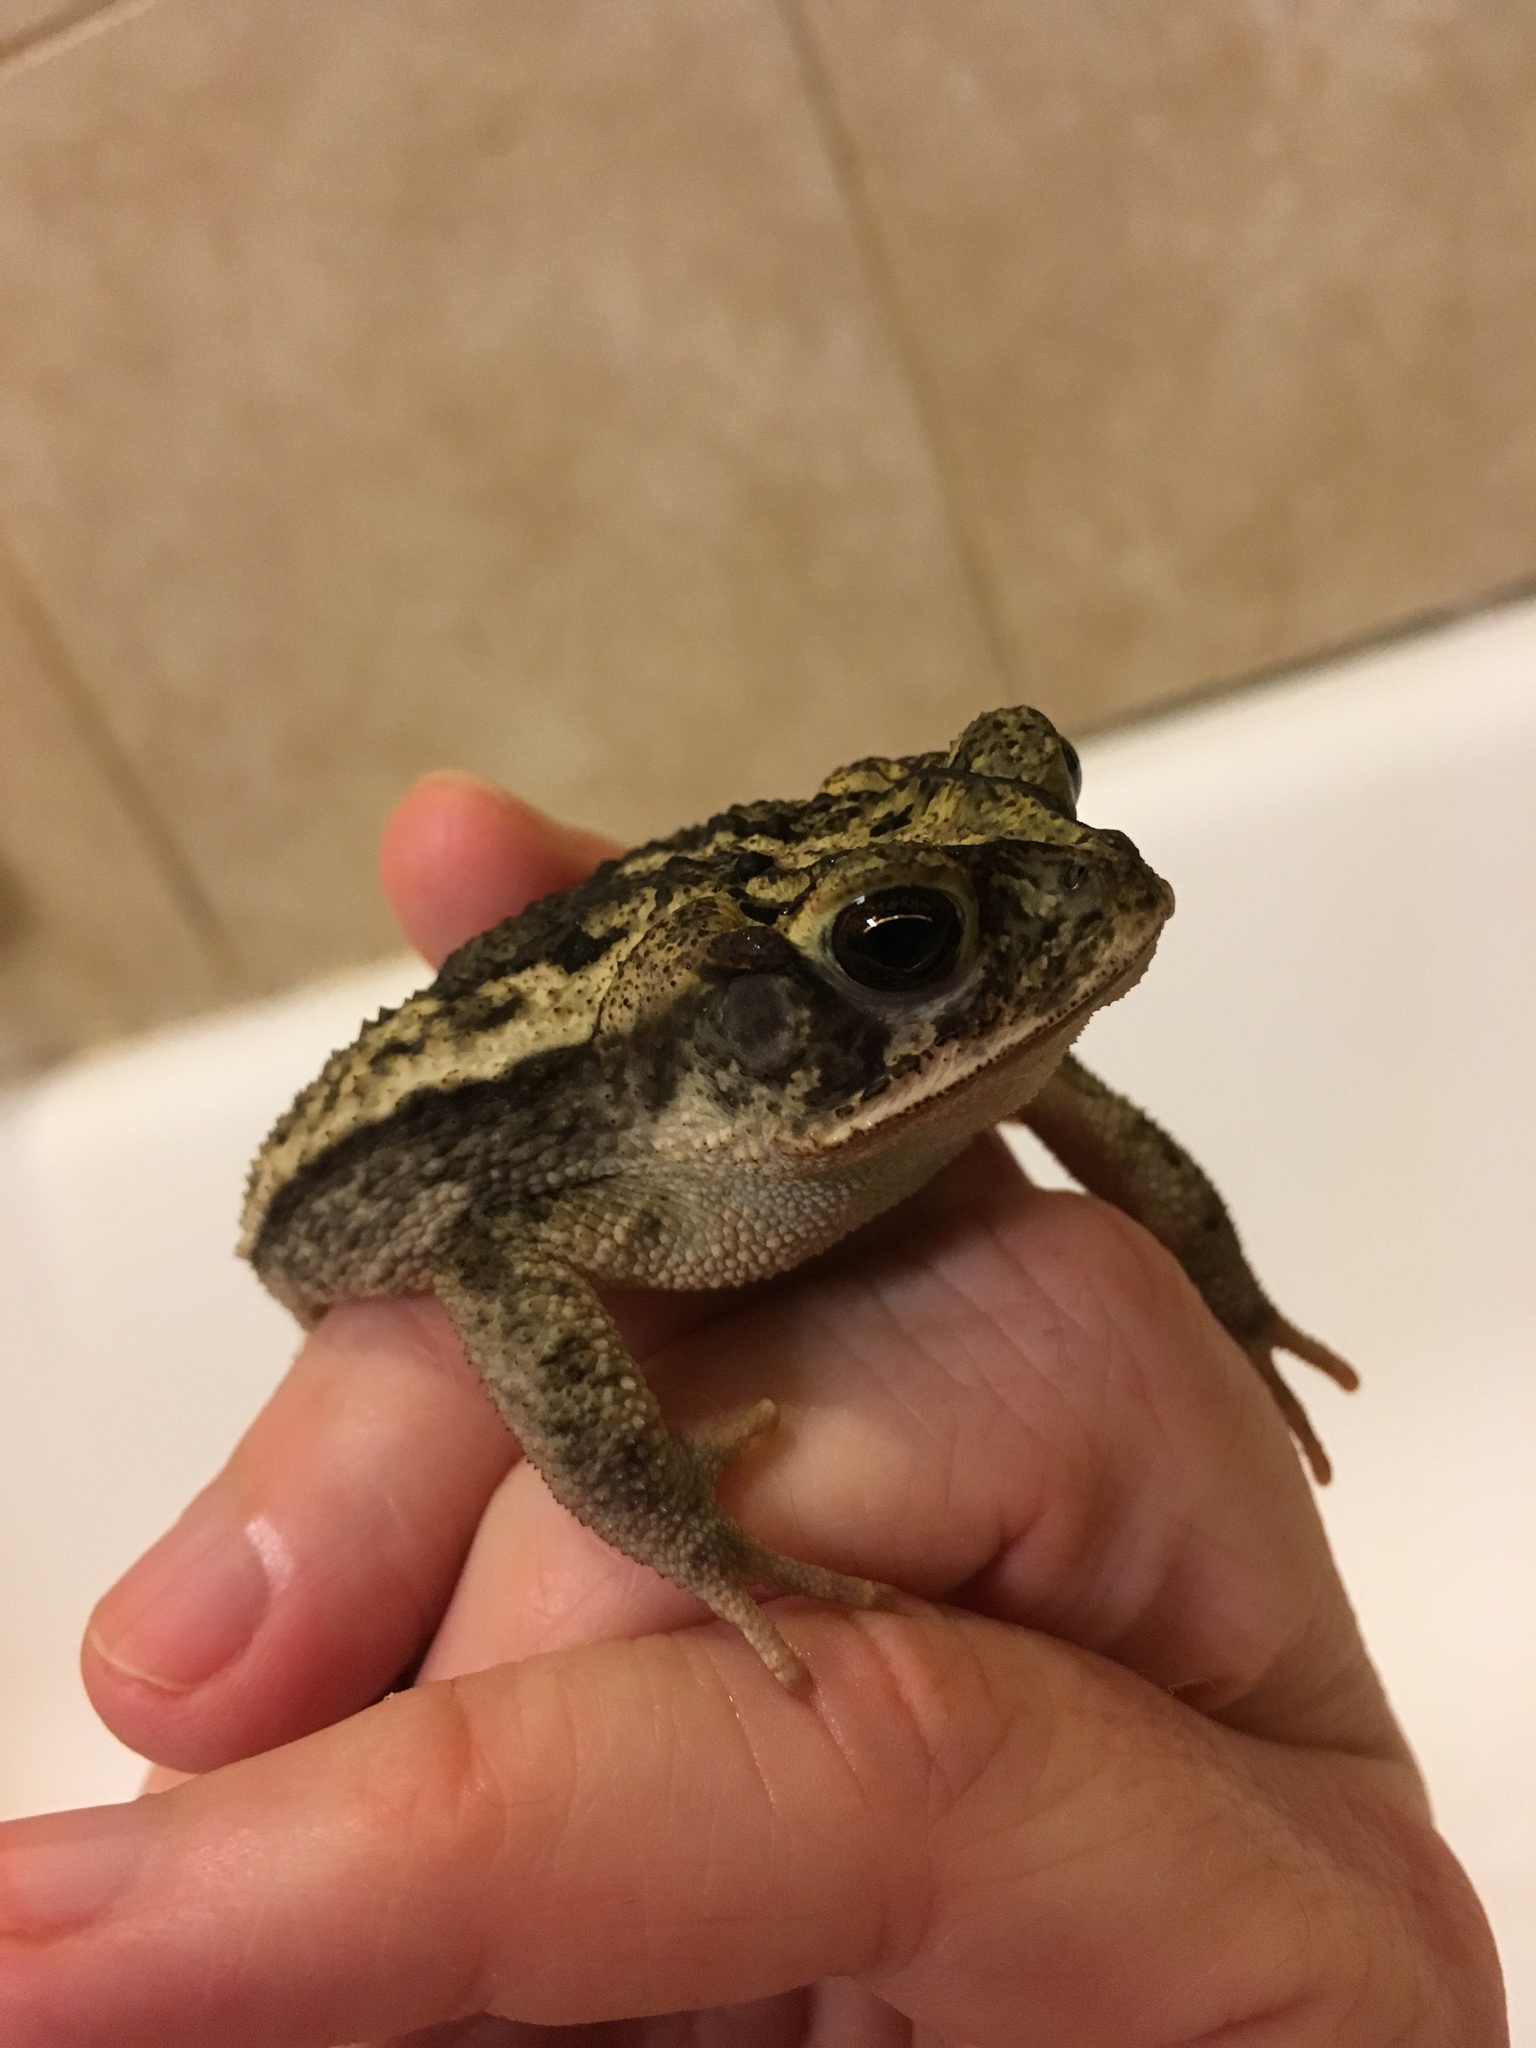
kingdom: Animalia
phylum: Chordata
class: Amphibia
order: Anura
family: Bufonidae
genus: Incilius
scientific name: Incilius nebulifer
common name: Gulf coast toad
